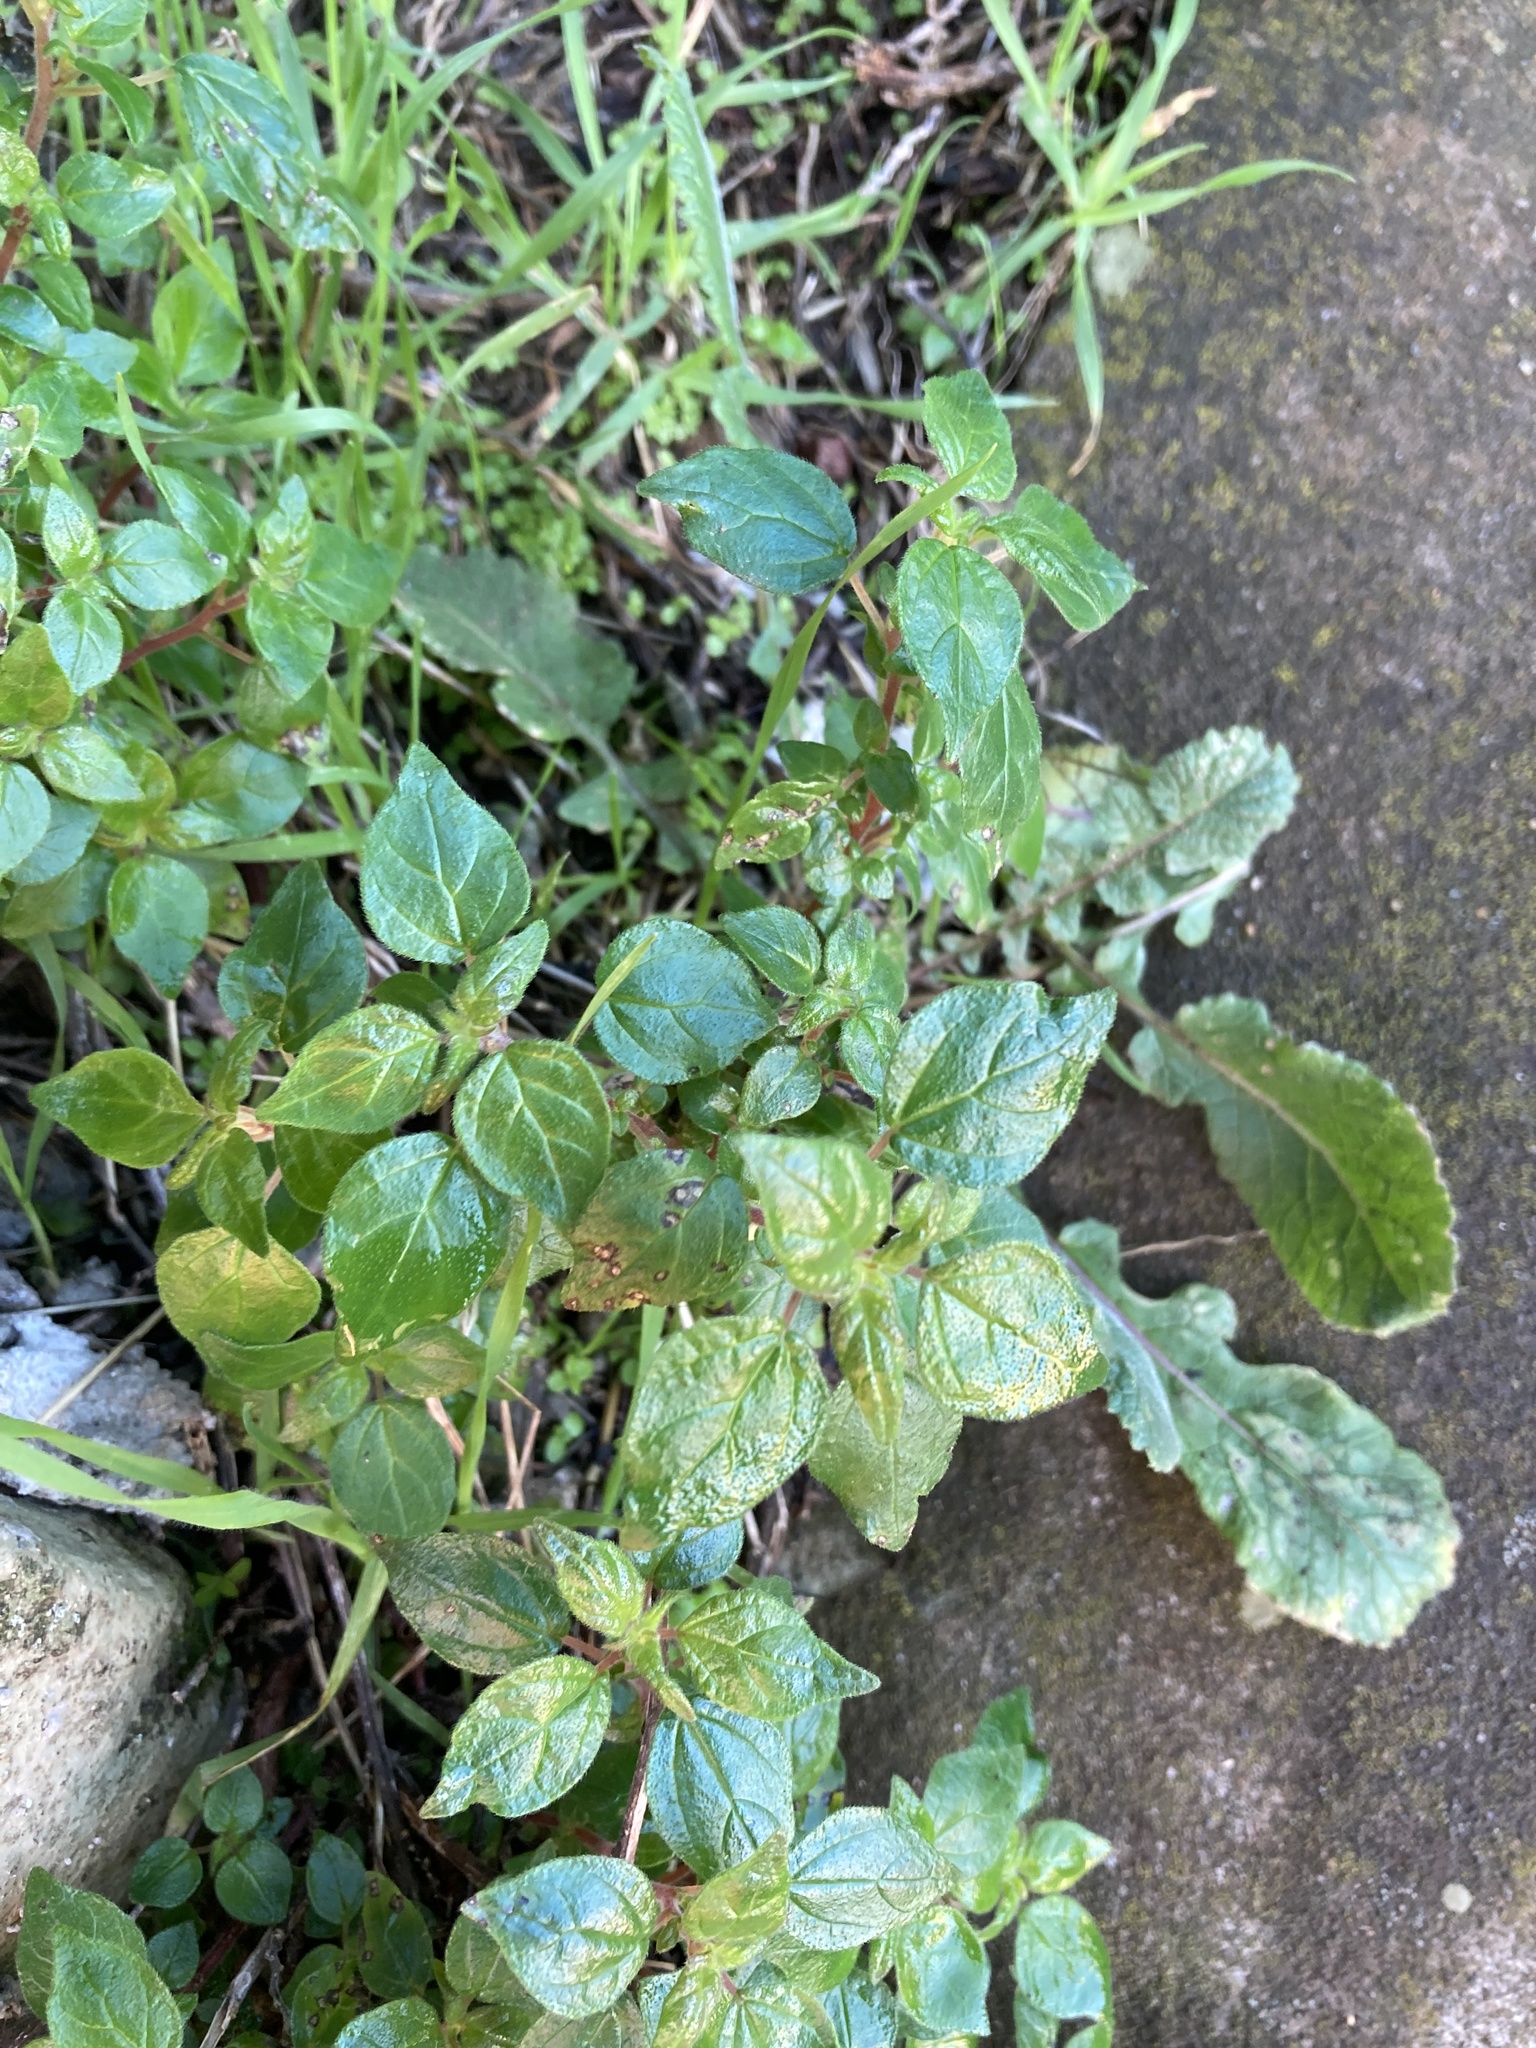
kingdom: Plantae
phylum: Tracheophyta
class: Magnoliopsida
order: Rosales
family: Urticaceae
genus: Parietaria
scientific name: Parietaria judaica
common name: Pellitory-of-the-wall
